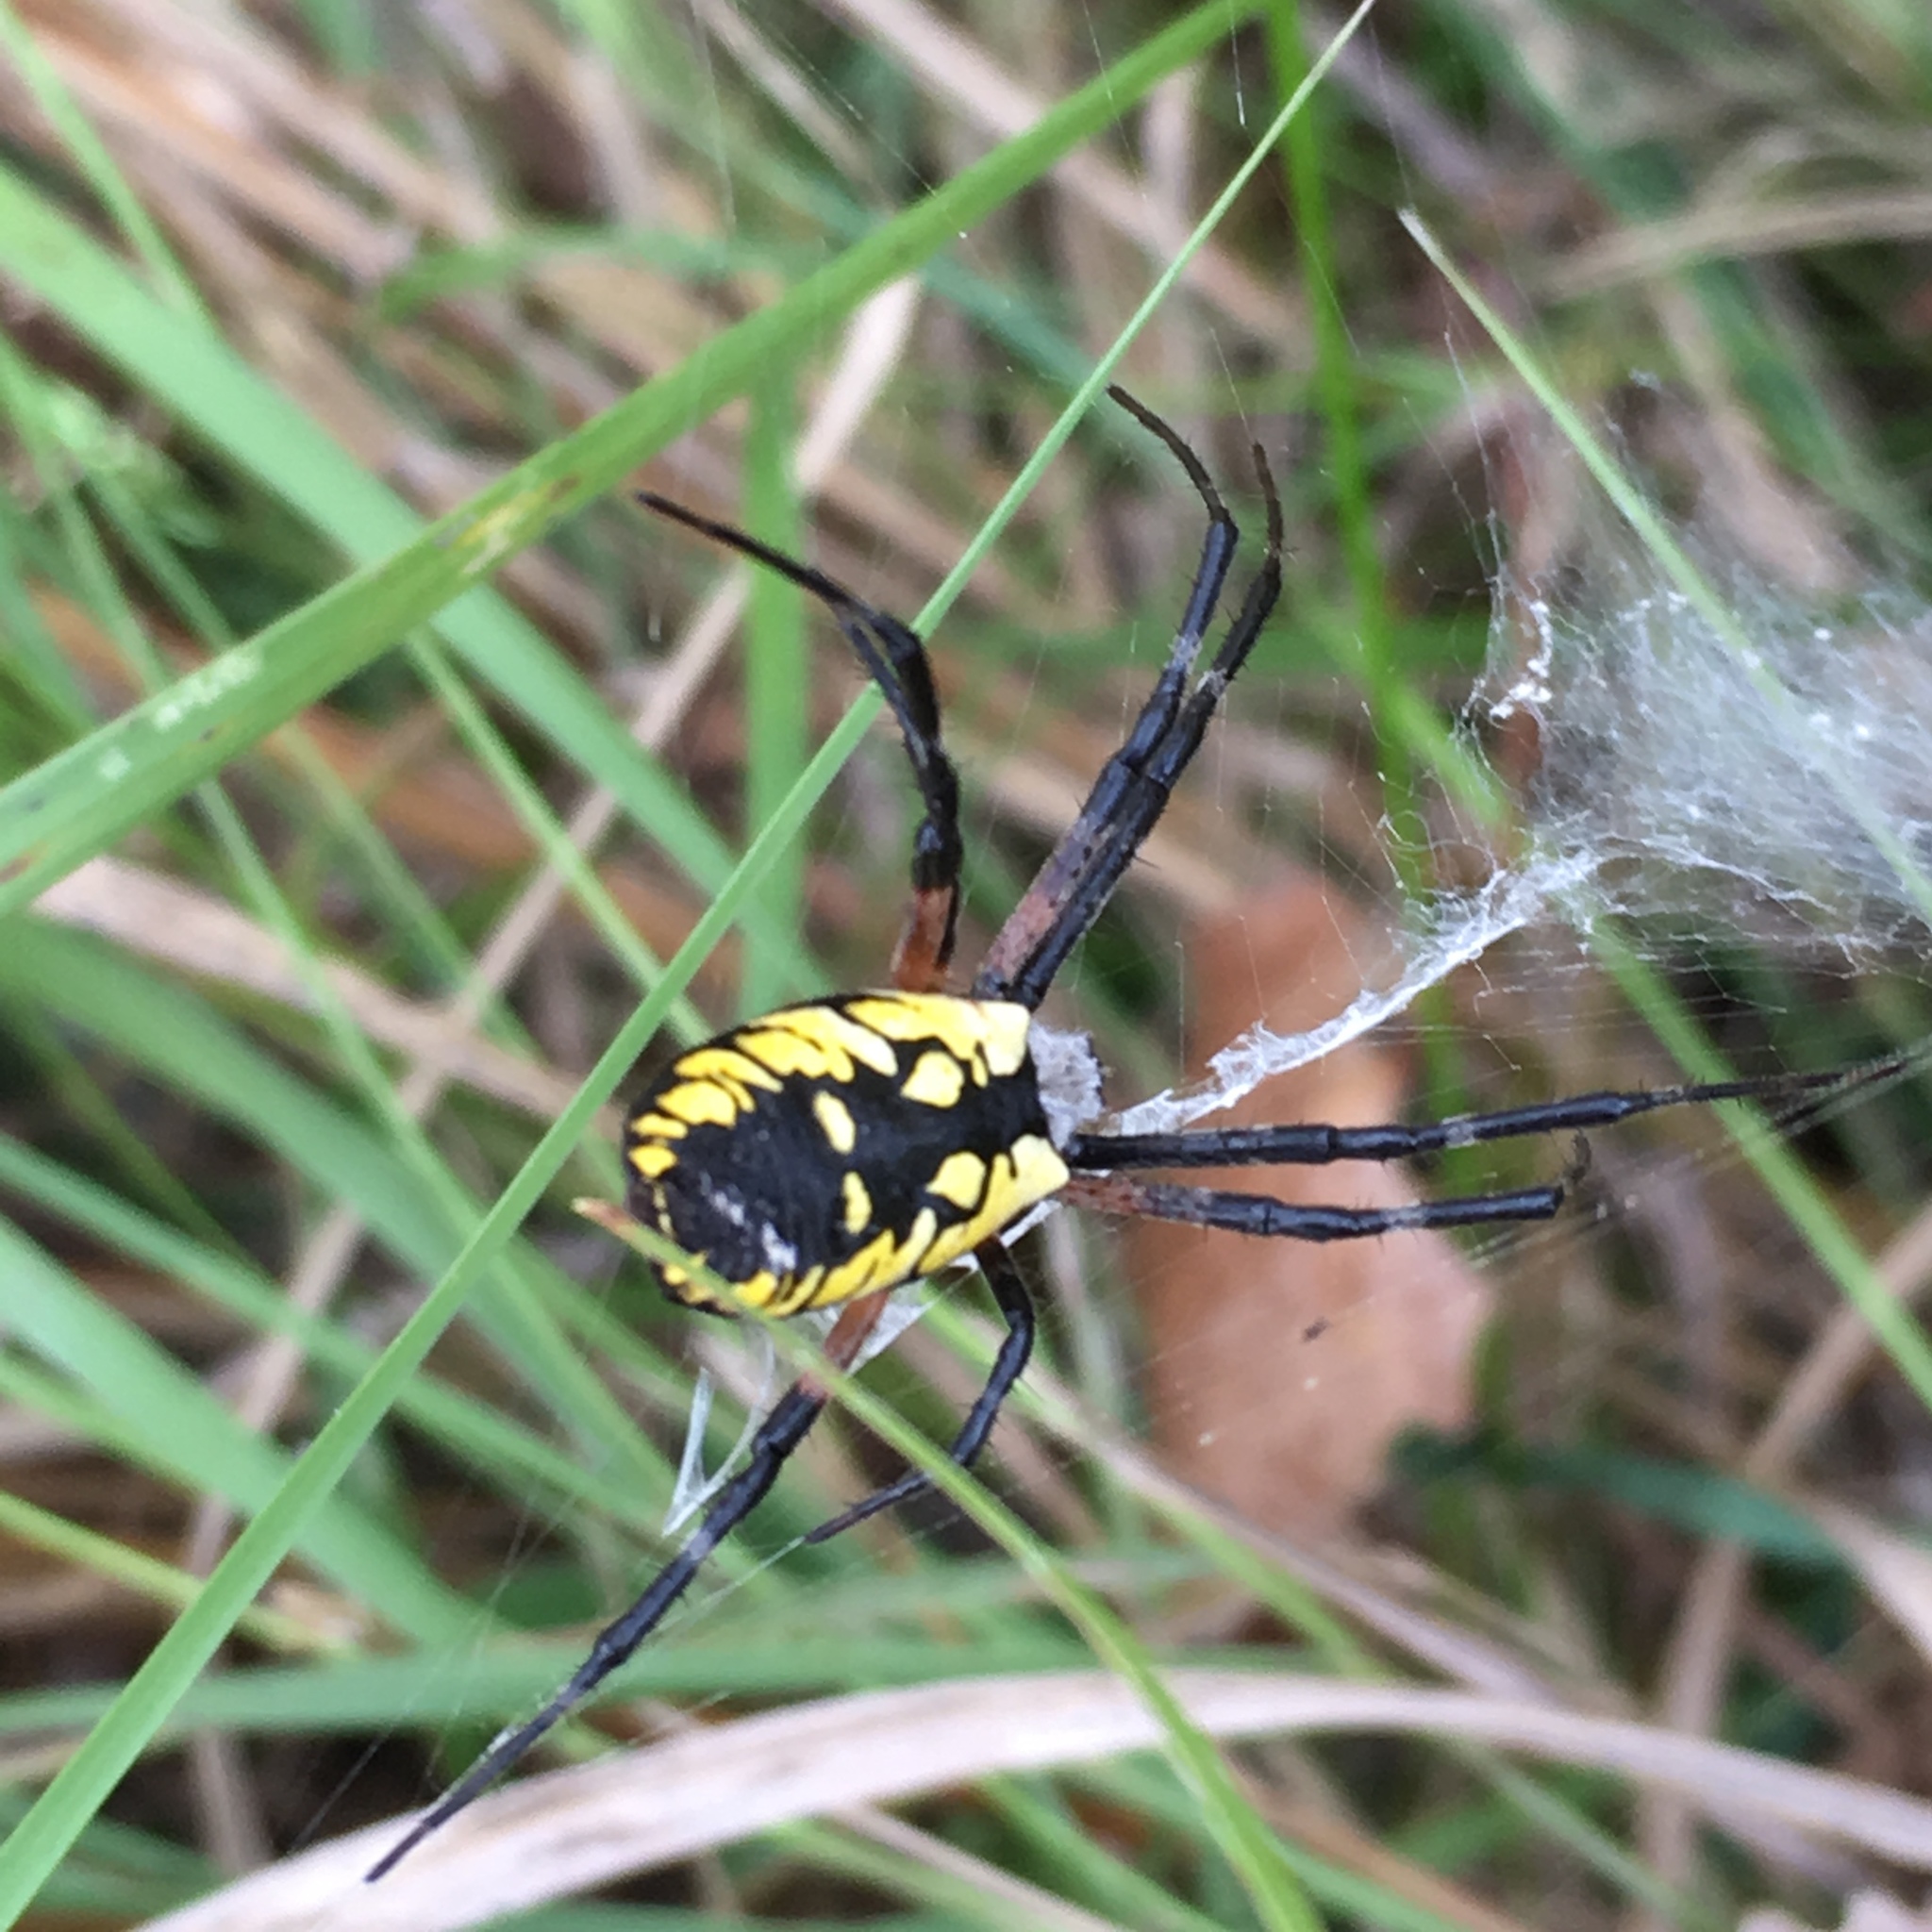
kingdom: Animalia
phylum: Arthropoda
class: Arachnida
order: Araneae
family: Araneidae
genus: Argiope
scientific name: Argiope aurantia
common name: Orb weavers
